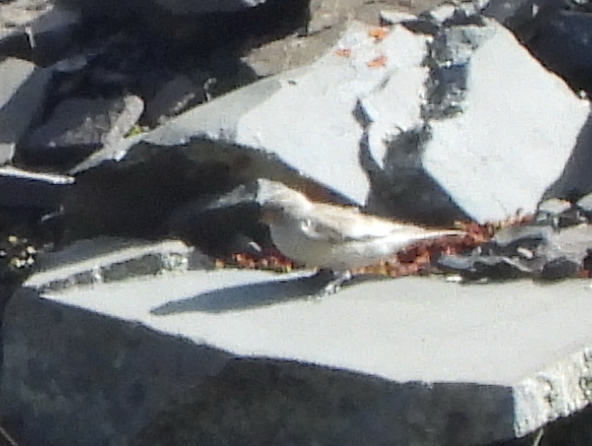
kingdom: Animalia
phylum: Chordata
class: Aves
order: Passeriformes
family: Passeridae
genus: Montifringilla
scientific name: Montifringilla nivalis
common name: White-winged snowfinch
